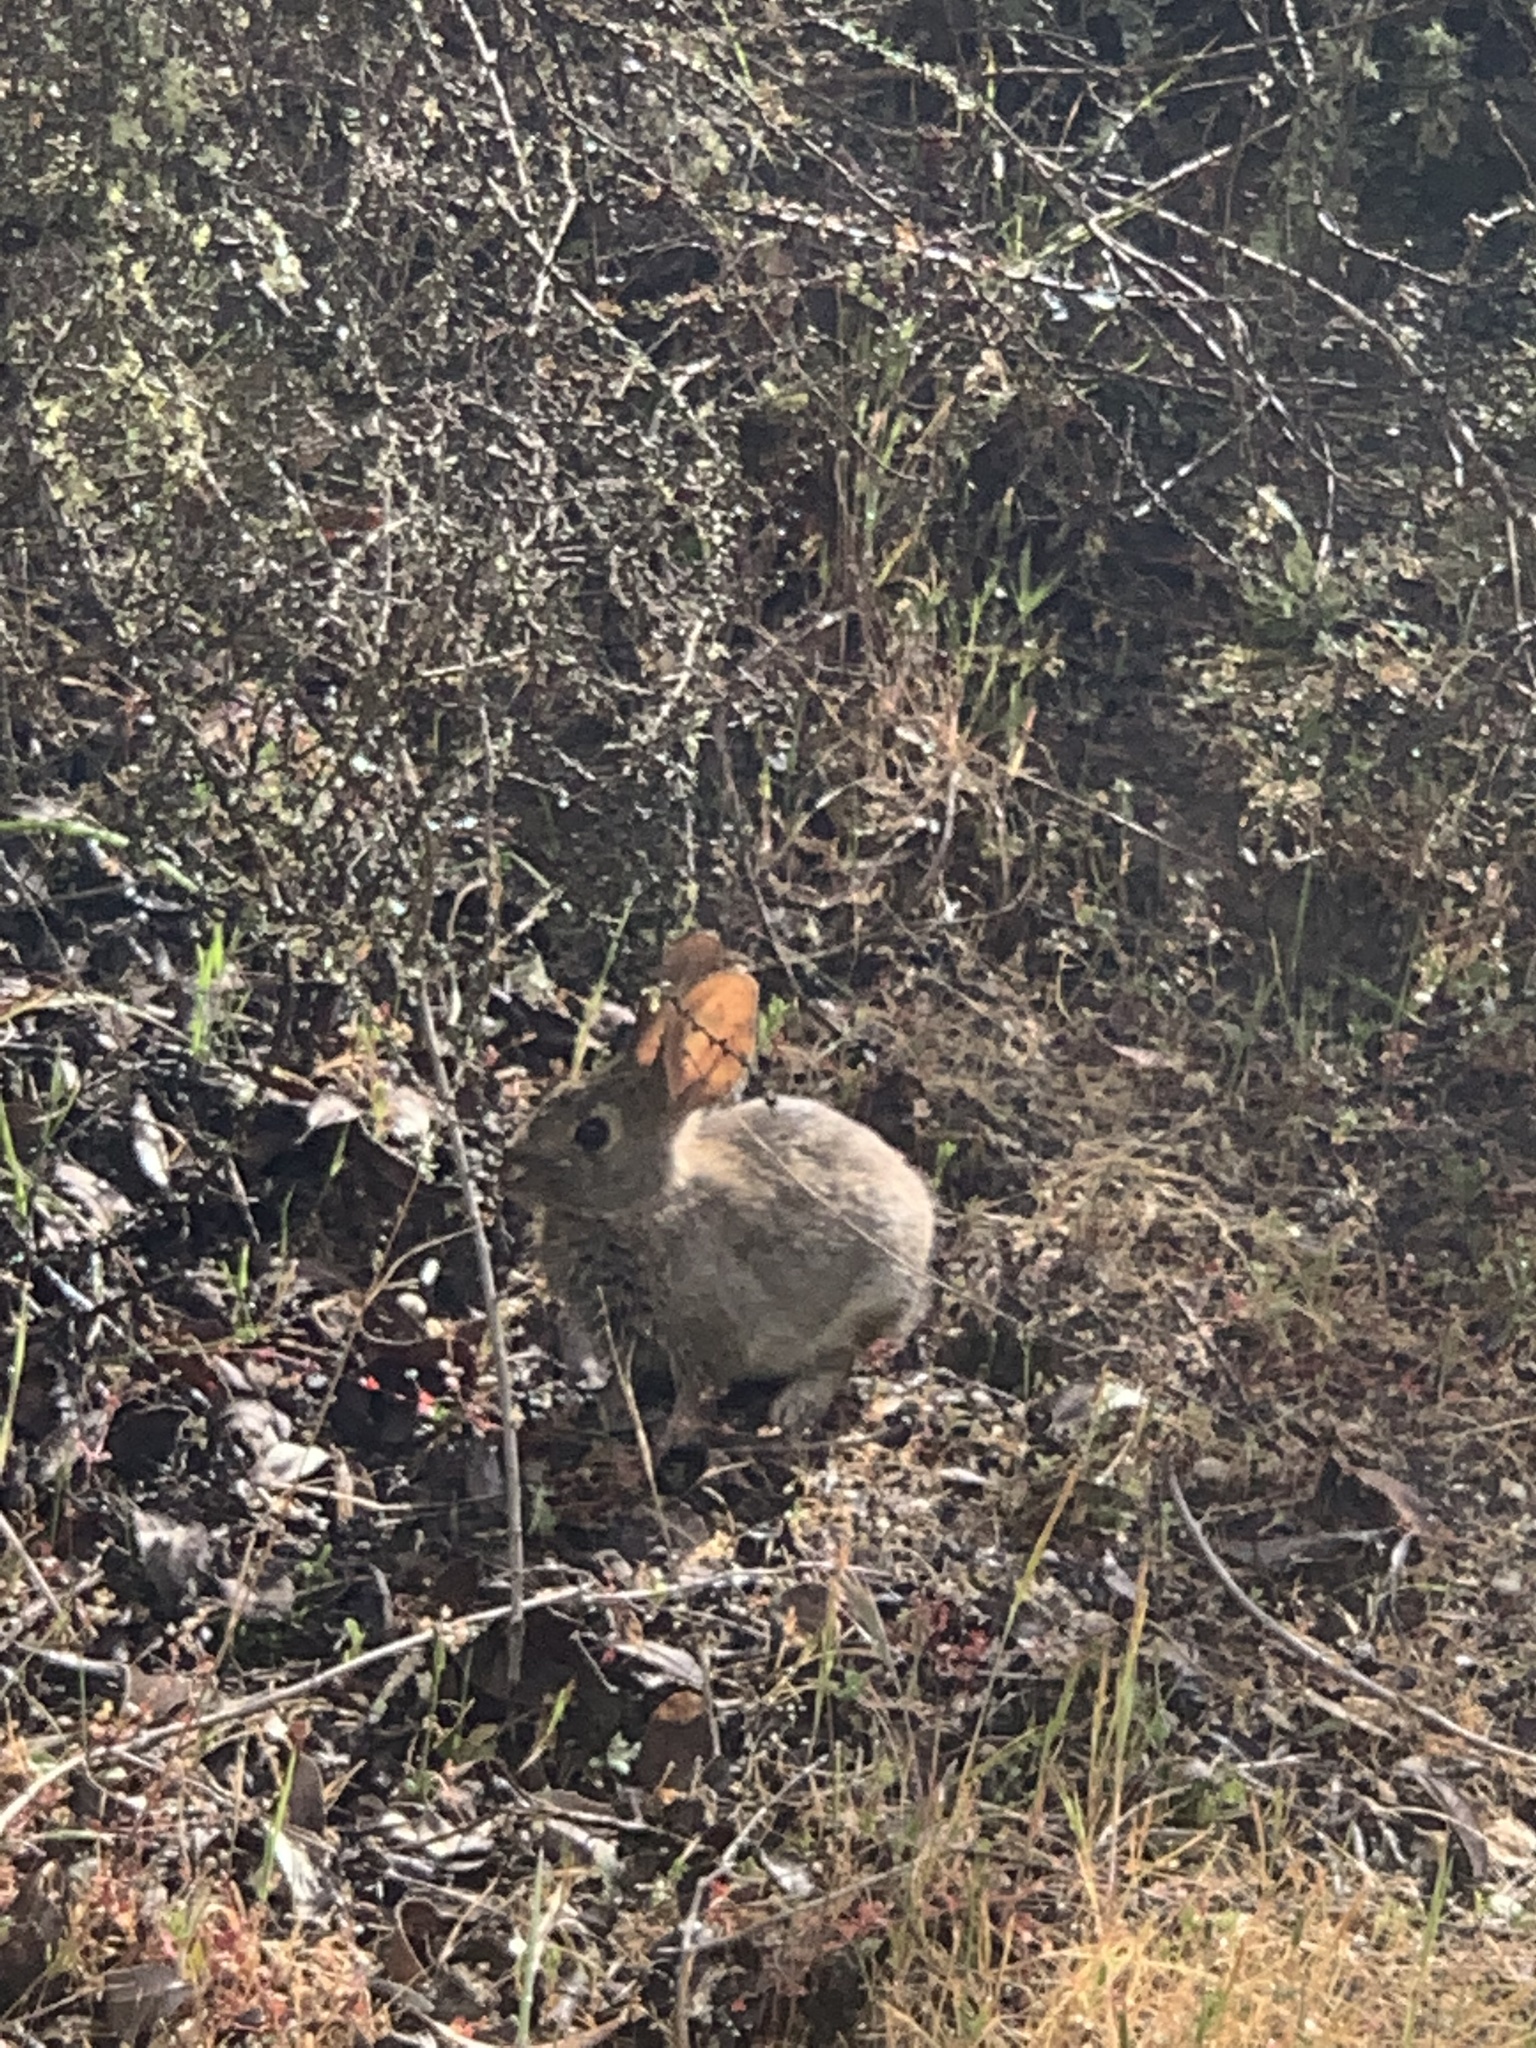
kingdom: Animalia
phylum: Chordata
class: Mammalia
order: Lagomorpha
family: Leporidae
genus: Sylvilagus
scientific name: Sylvilagus bachmani
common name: Brush rabbit
